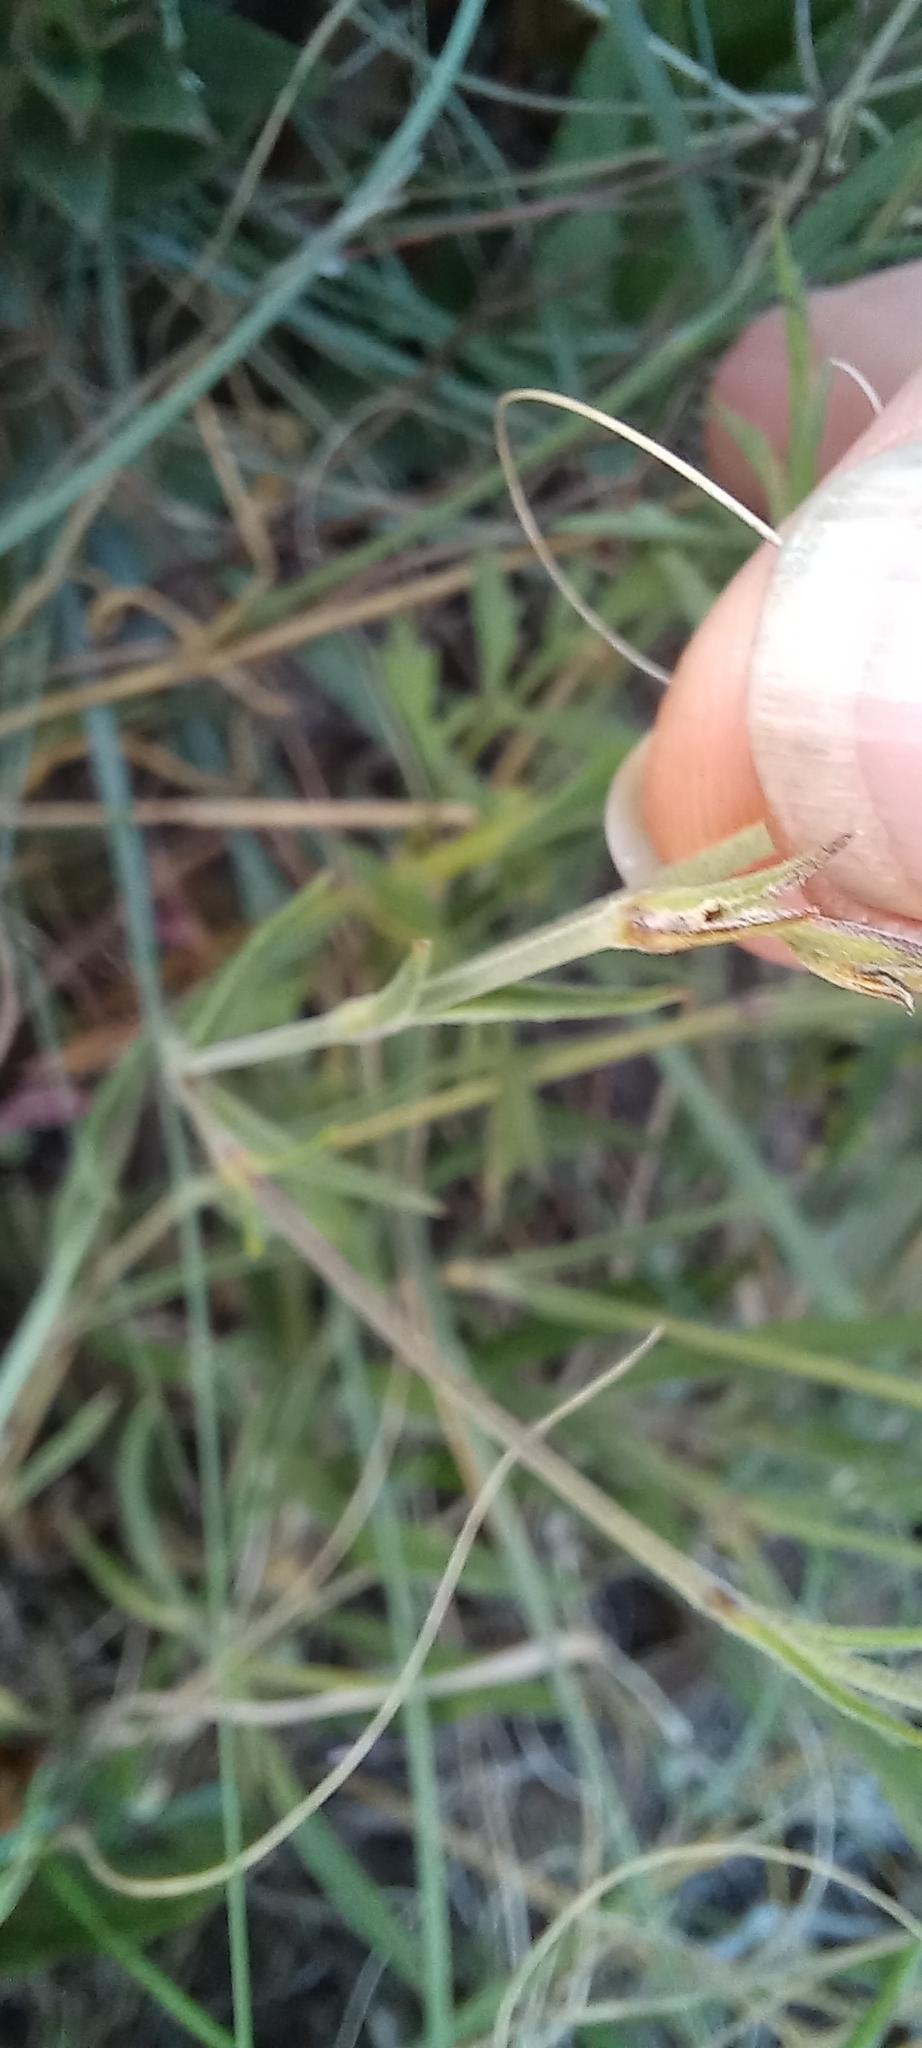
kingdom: Plantae
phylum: Tracheophyta
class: Magnoliopsida
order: Caryophyllales
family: Caryophyllaceae
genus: Silene
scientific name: Silene burchellii
